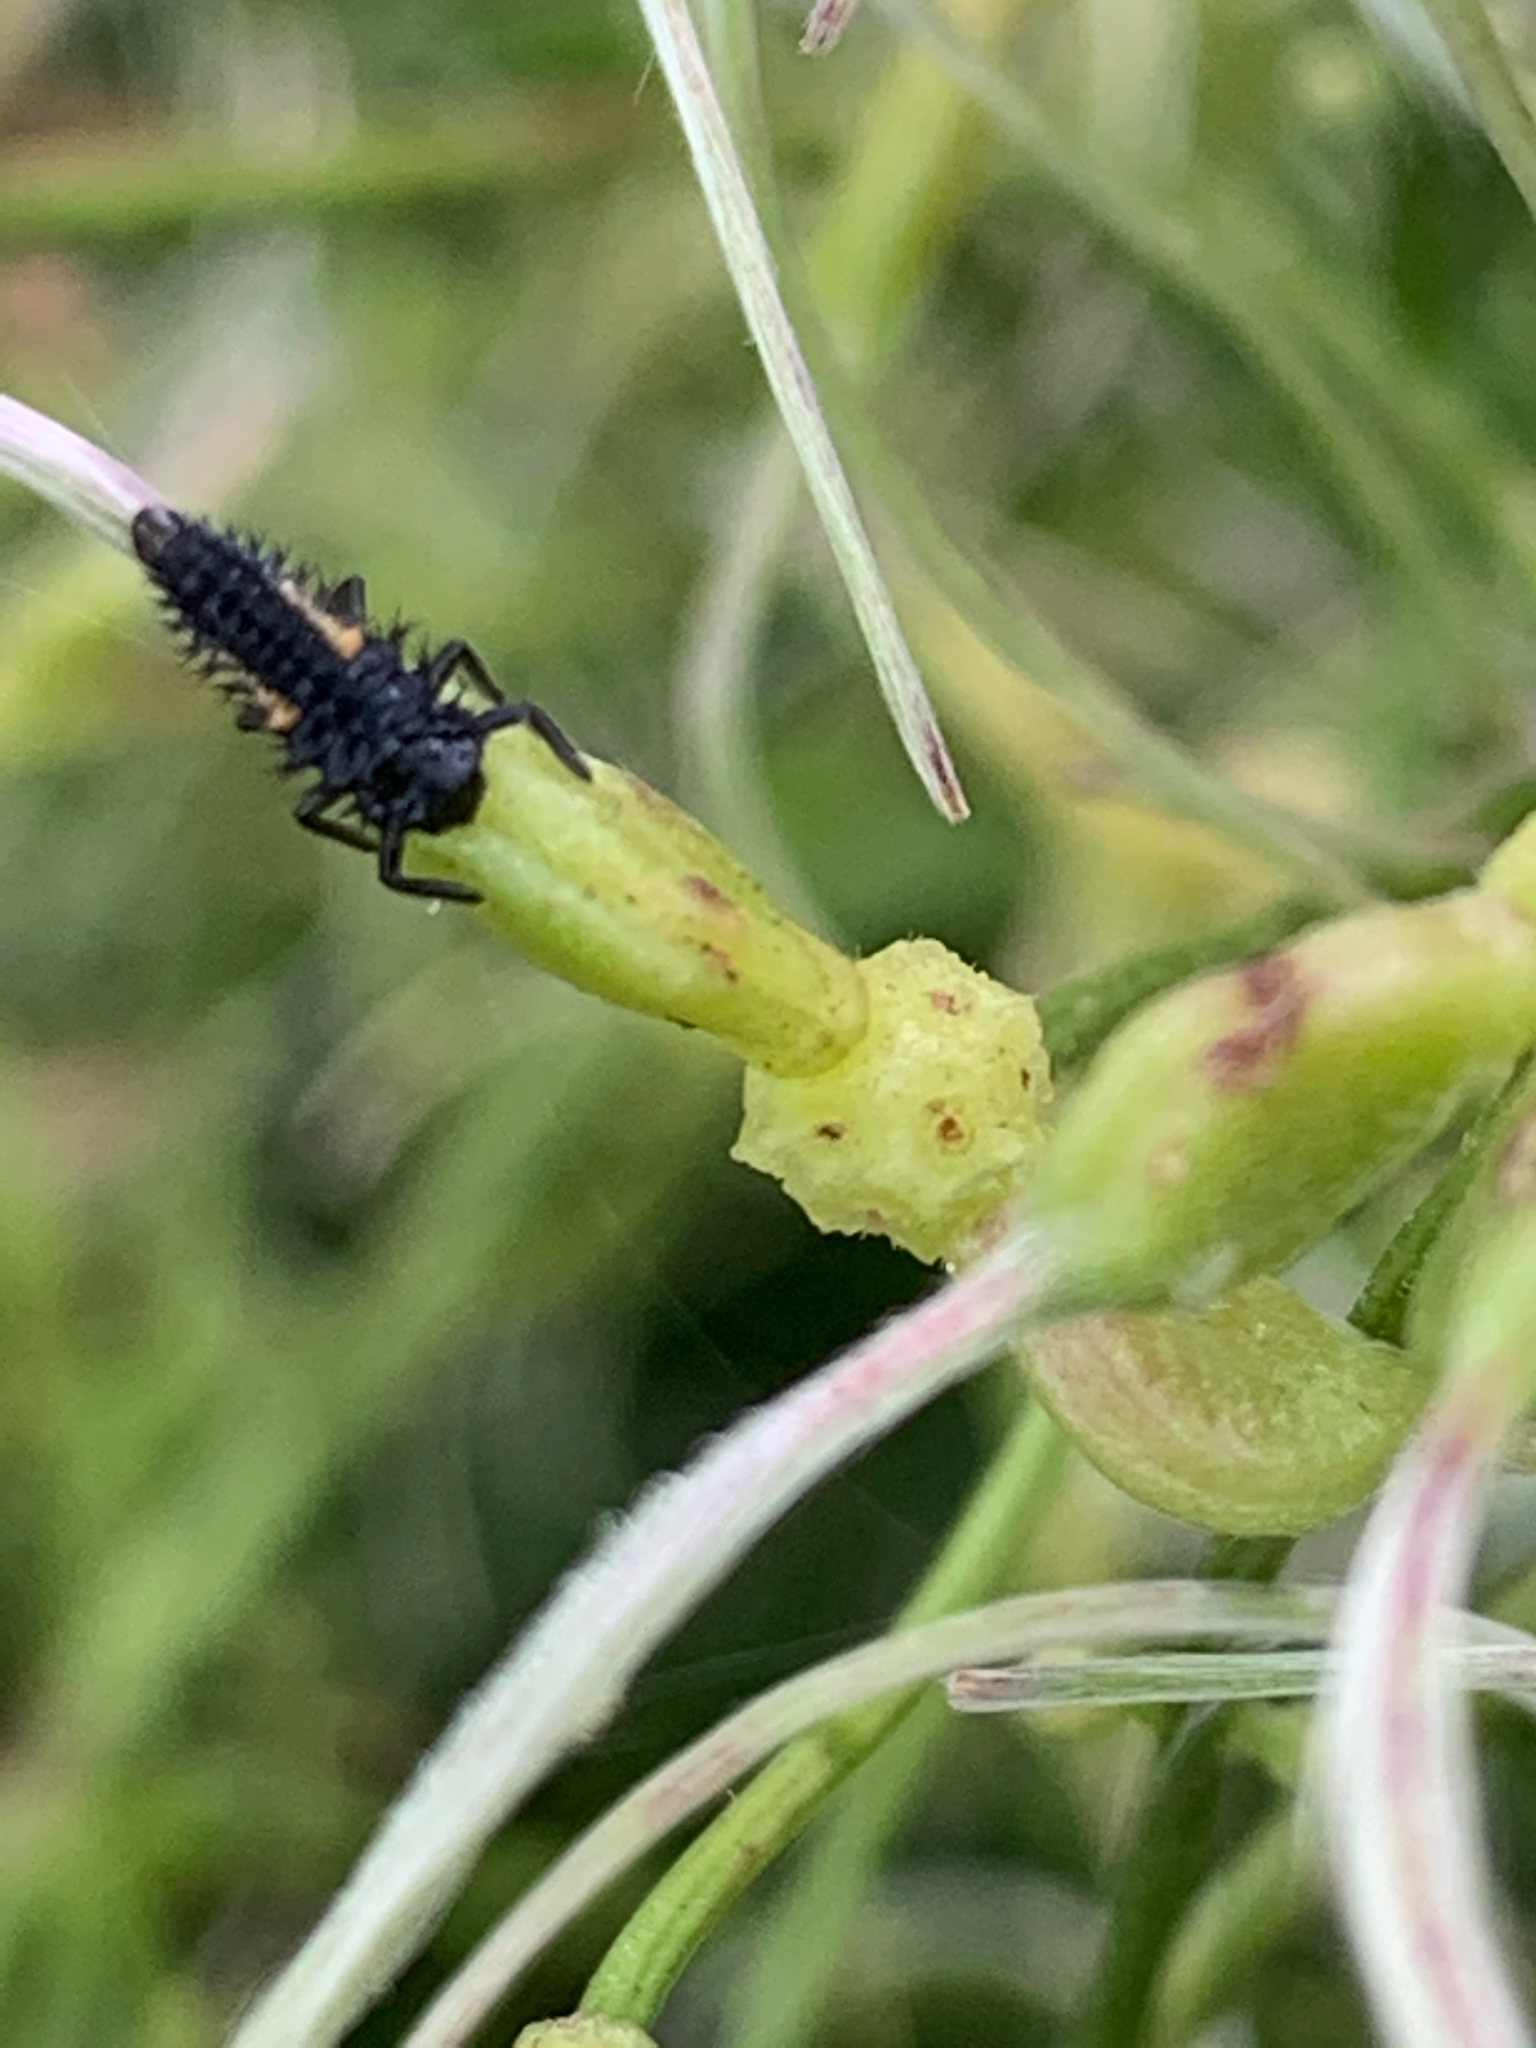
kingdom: Animalia
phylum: Arthropoda
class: Insecta
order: Coleoptera
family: Coccinellidae
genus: Harmonia
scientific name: Harmonia axyridis
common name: Harlequin ladybird
